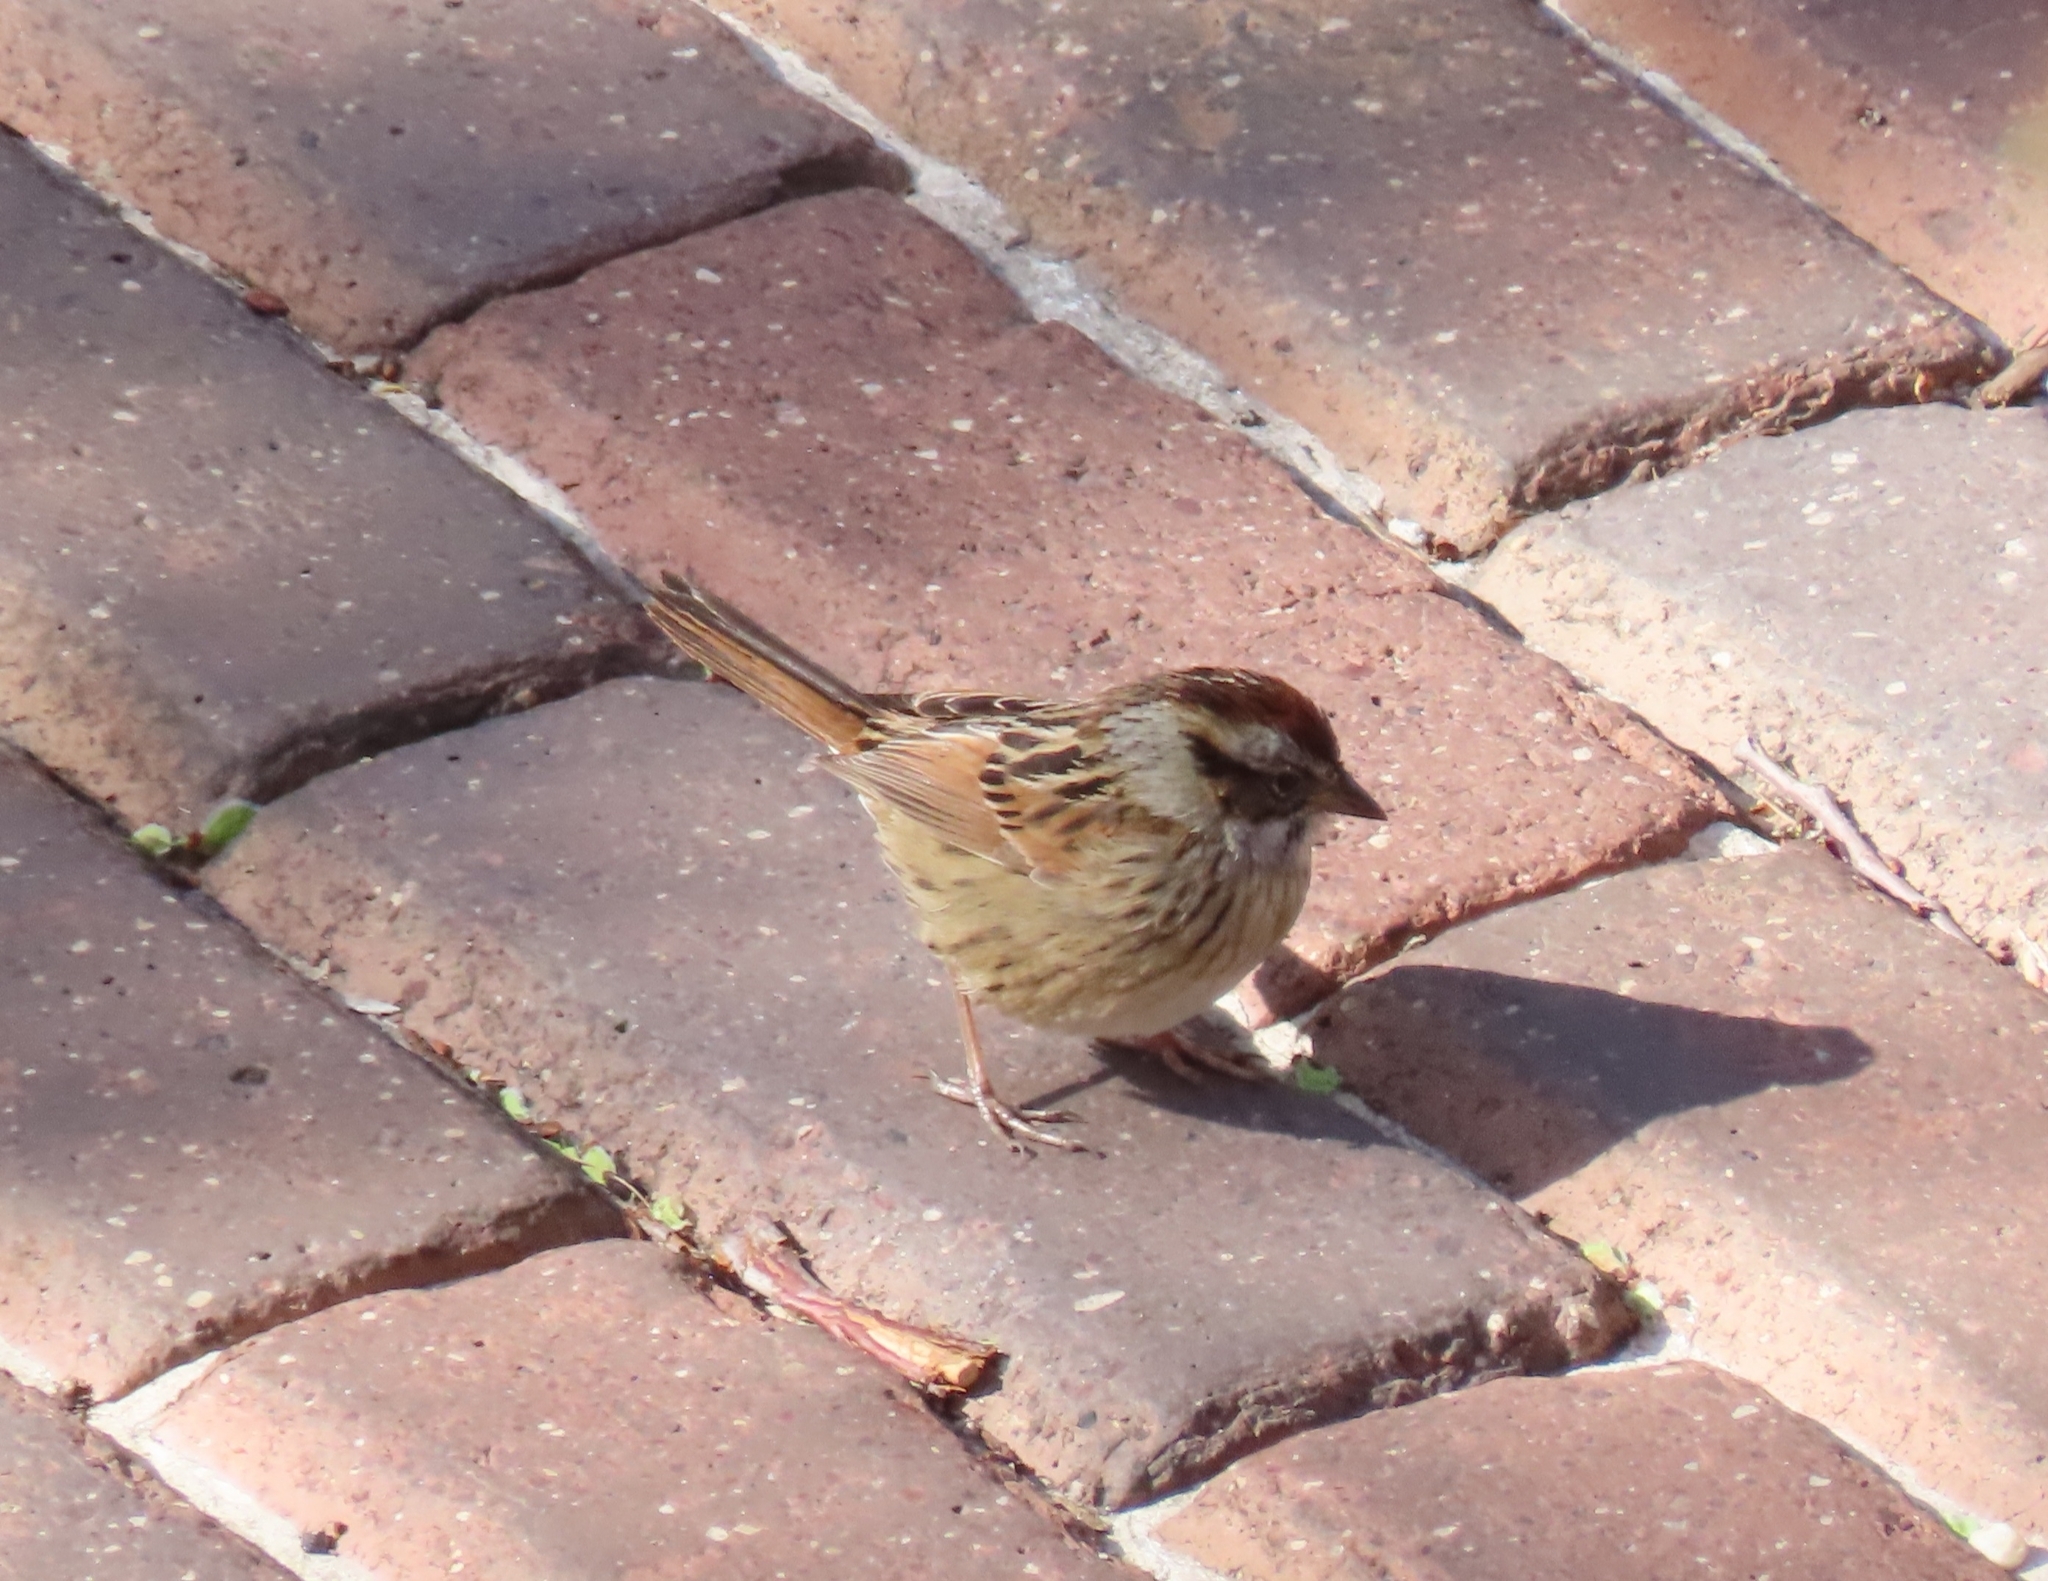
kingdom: Animalia
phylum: Chordata
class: Aves
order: Passeriformes
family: Passerellidae
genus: Melospiza
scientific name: Melospiza georgiana
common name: Swamp sparrow
